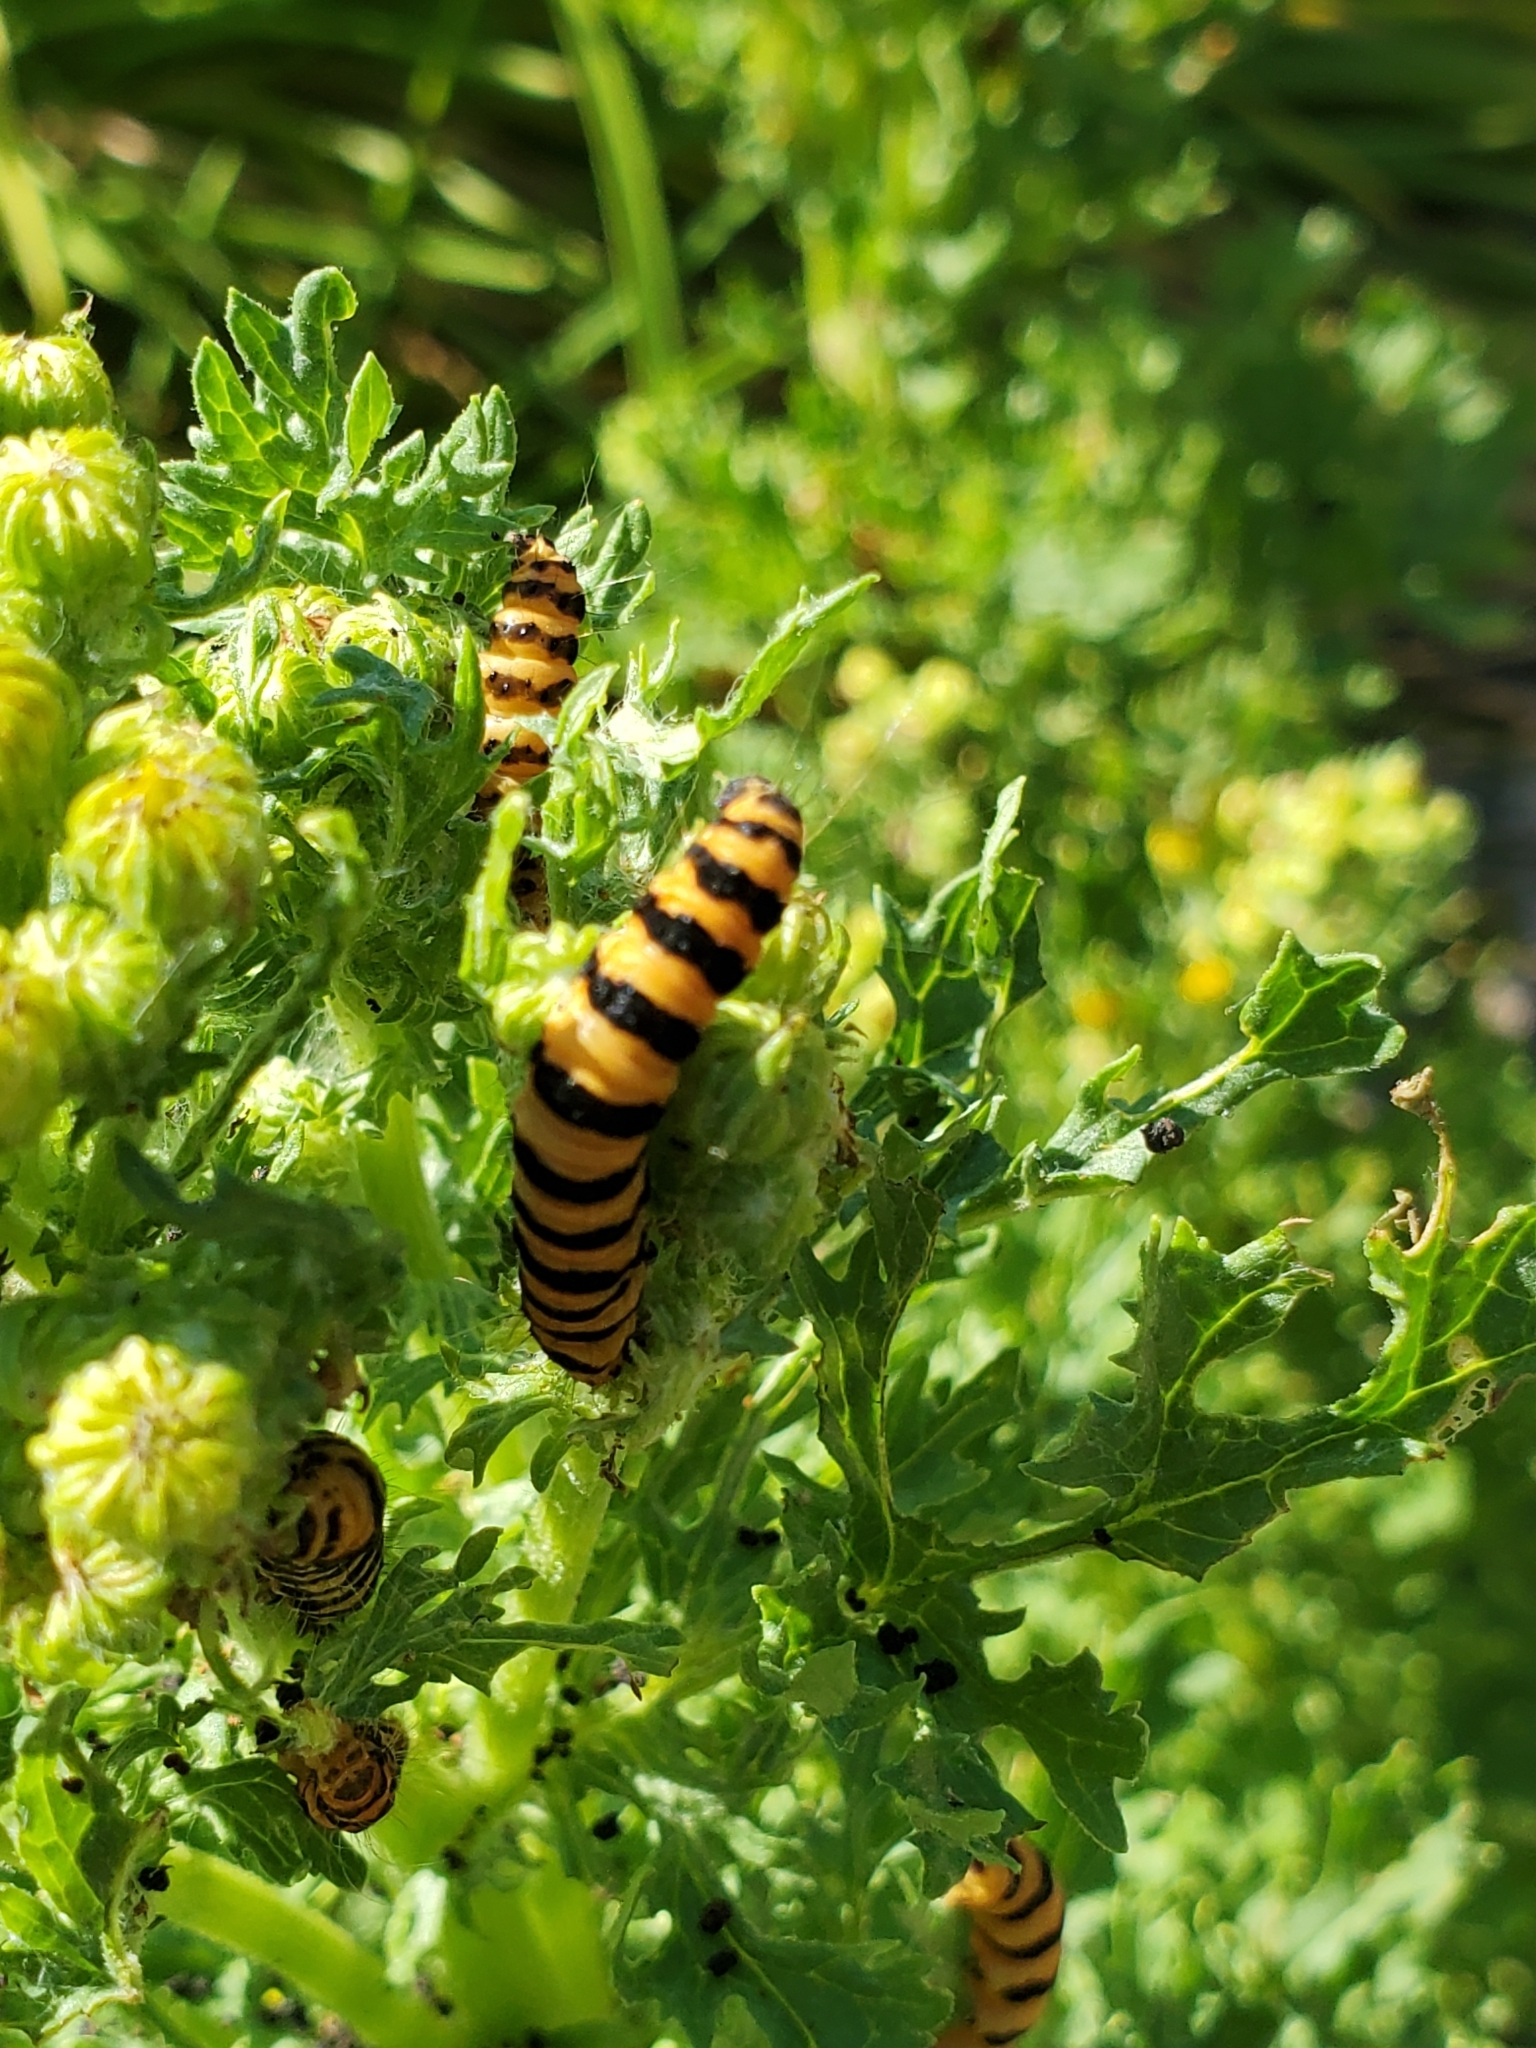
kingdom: Animalia
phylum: Arthropoda
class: Insecta
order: Lepidoptera
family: Erebidae
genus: Tyria
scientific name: Tyria jacobaeae
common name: Cinnabar
